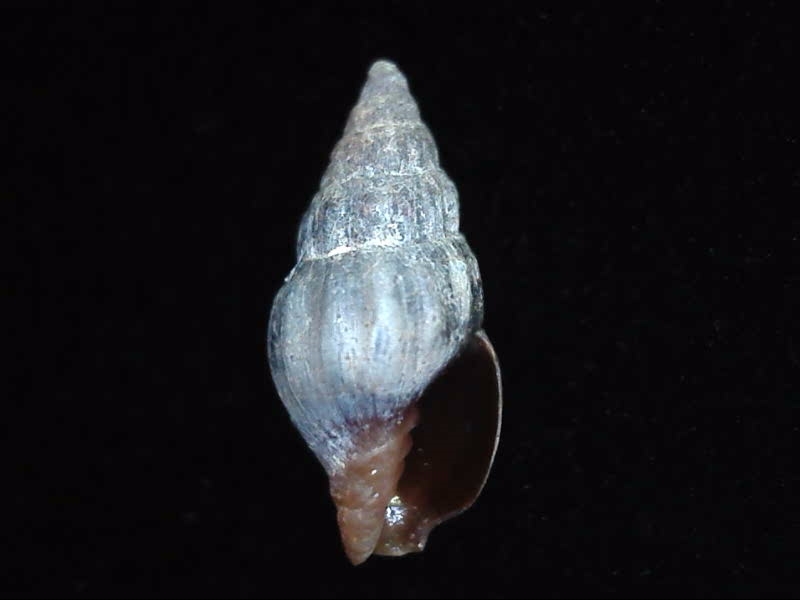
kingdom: Animalia
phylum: Mollusca
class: Gastropoda
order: Neogastropoda
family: Costellariidae
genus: Austromitra
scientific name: Austromitra rubiginosa
